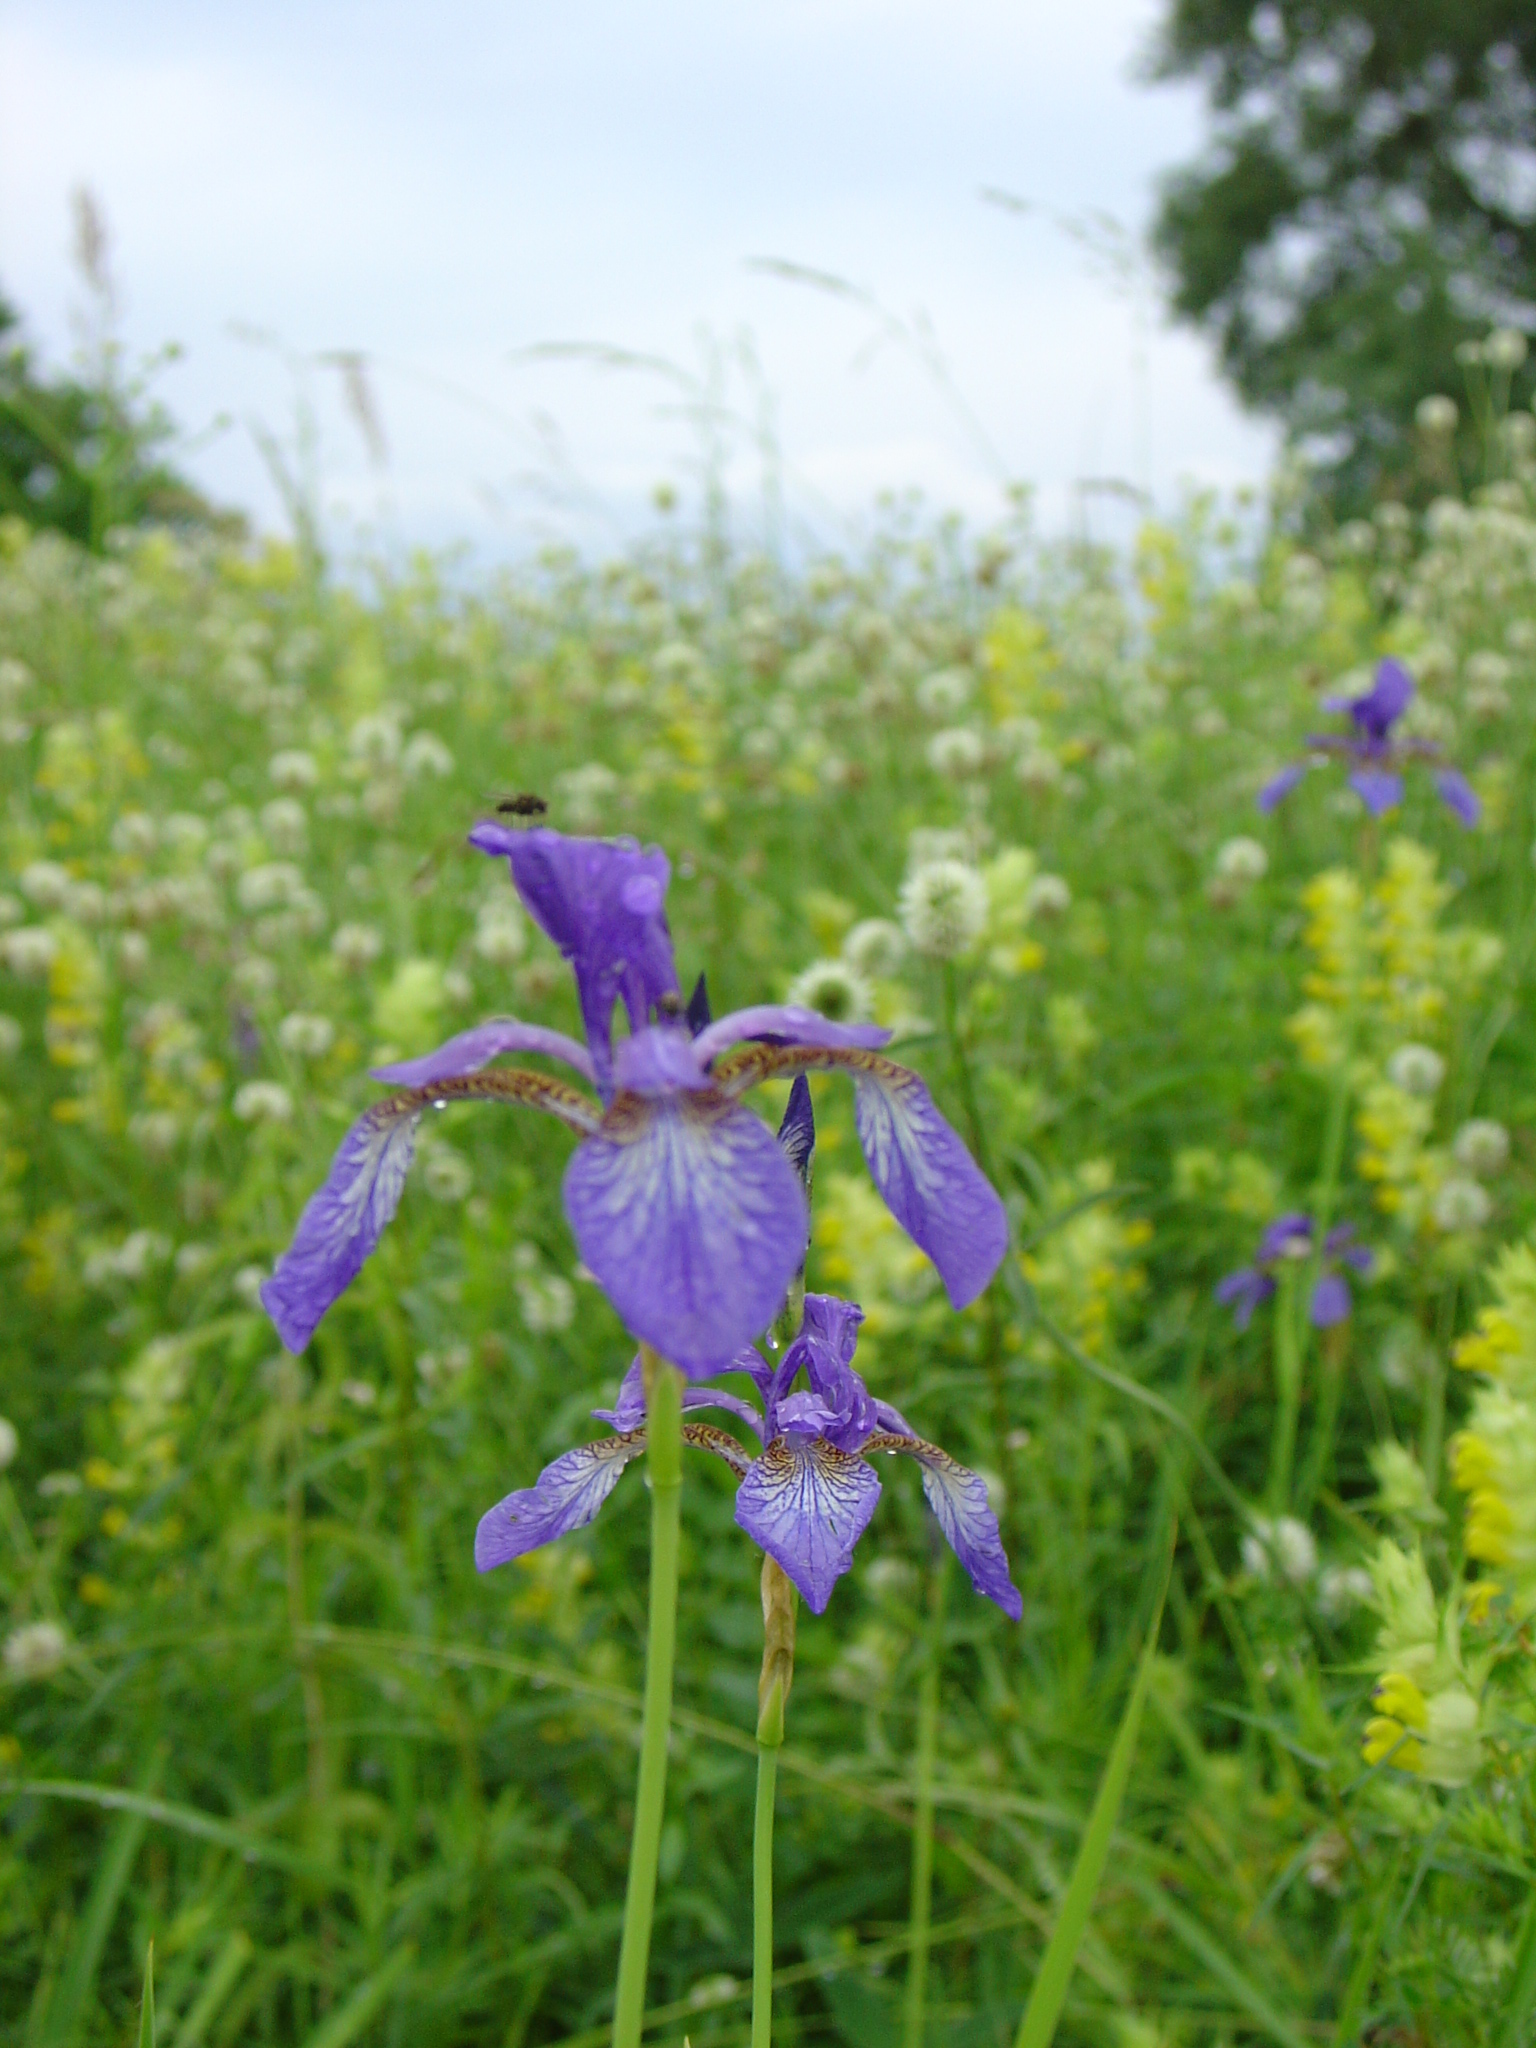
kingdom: Plantae
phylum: Tracheophyta
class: Liliopsida
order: Asparagales
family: Iridaceae
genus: Iris
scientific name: Iris sibirica
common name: Siberian iris
